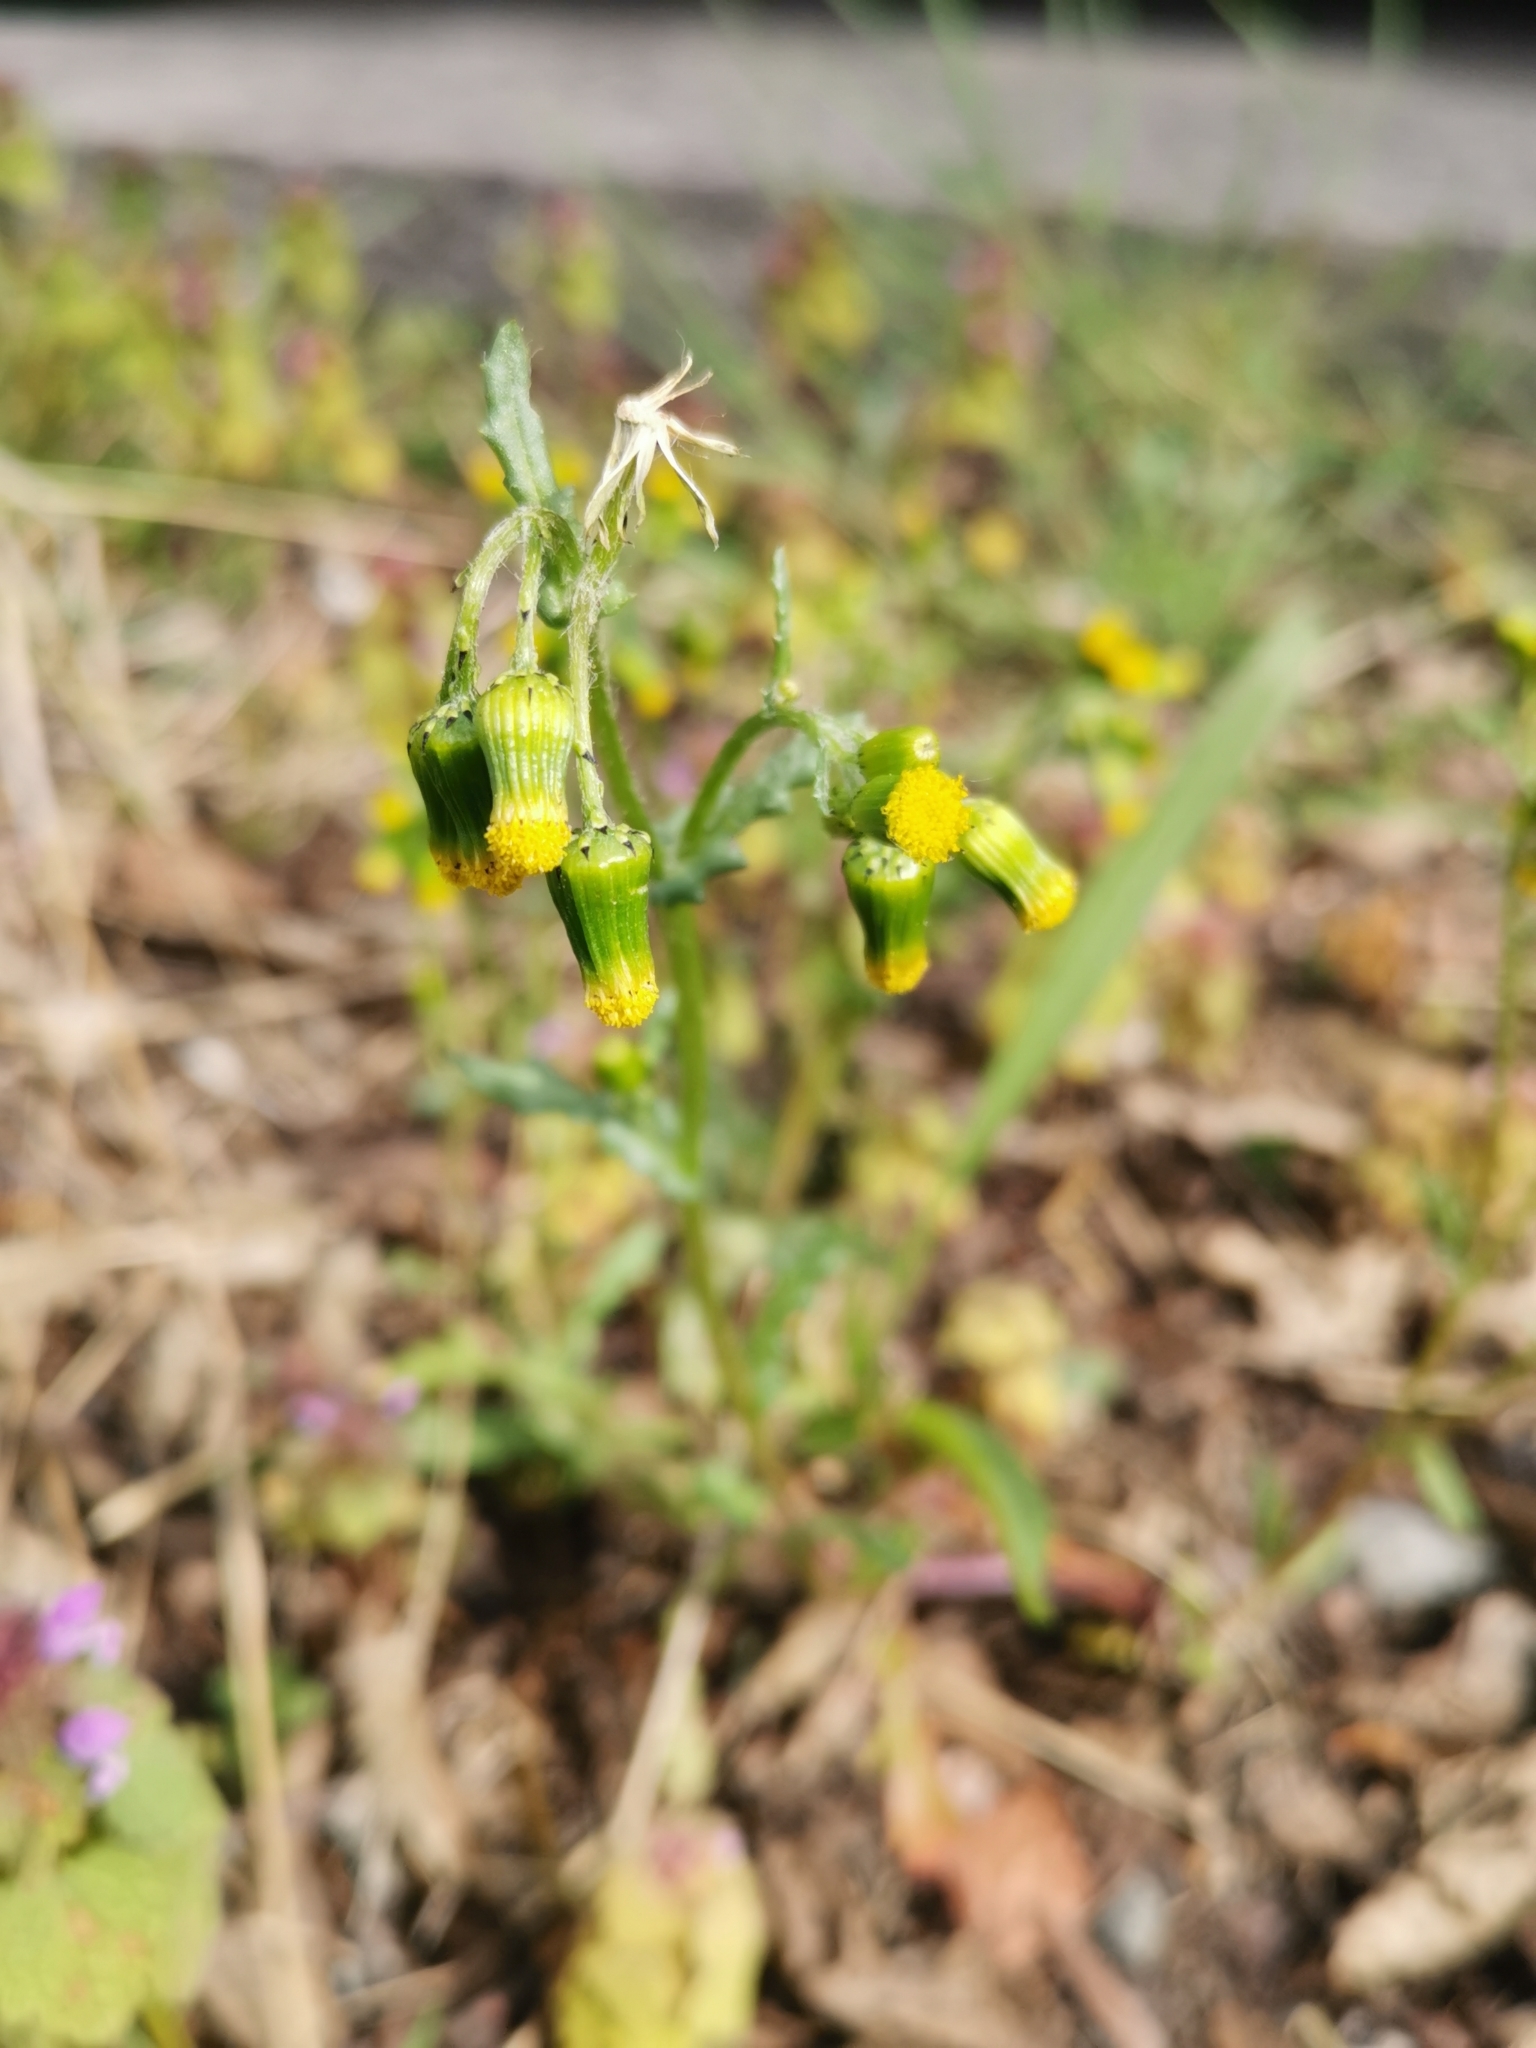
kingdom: Plantae
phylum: Tracheophyta
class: Magnoliopsida
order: Asterales
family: Asteraceae
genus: Senecio
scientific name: Senecio vulgaris
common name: Old-man-in-the-spring
